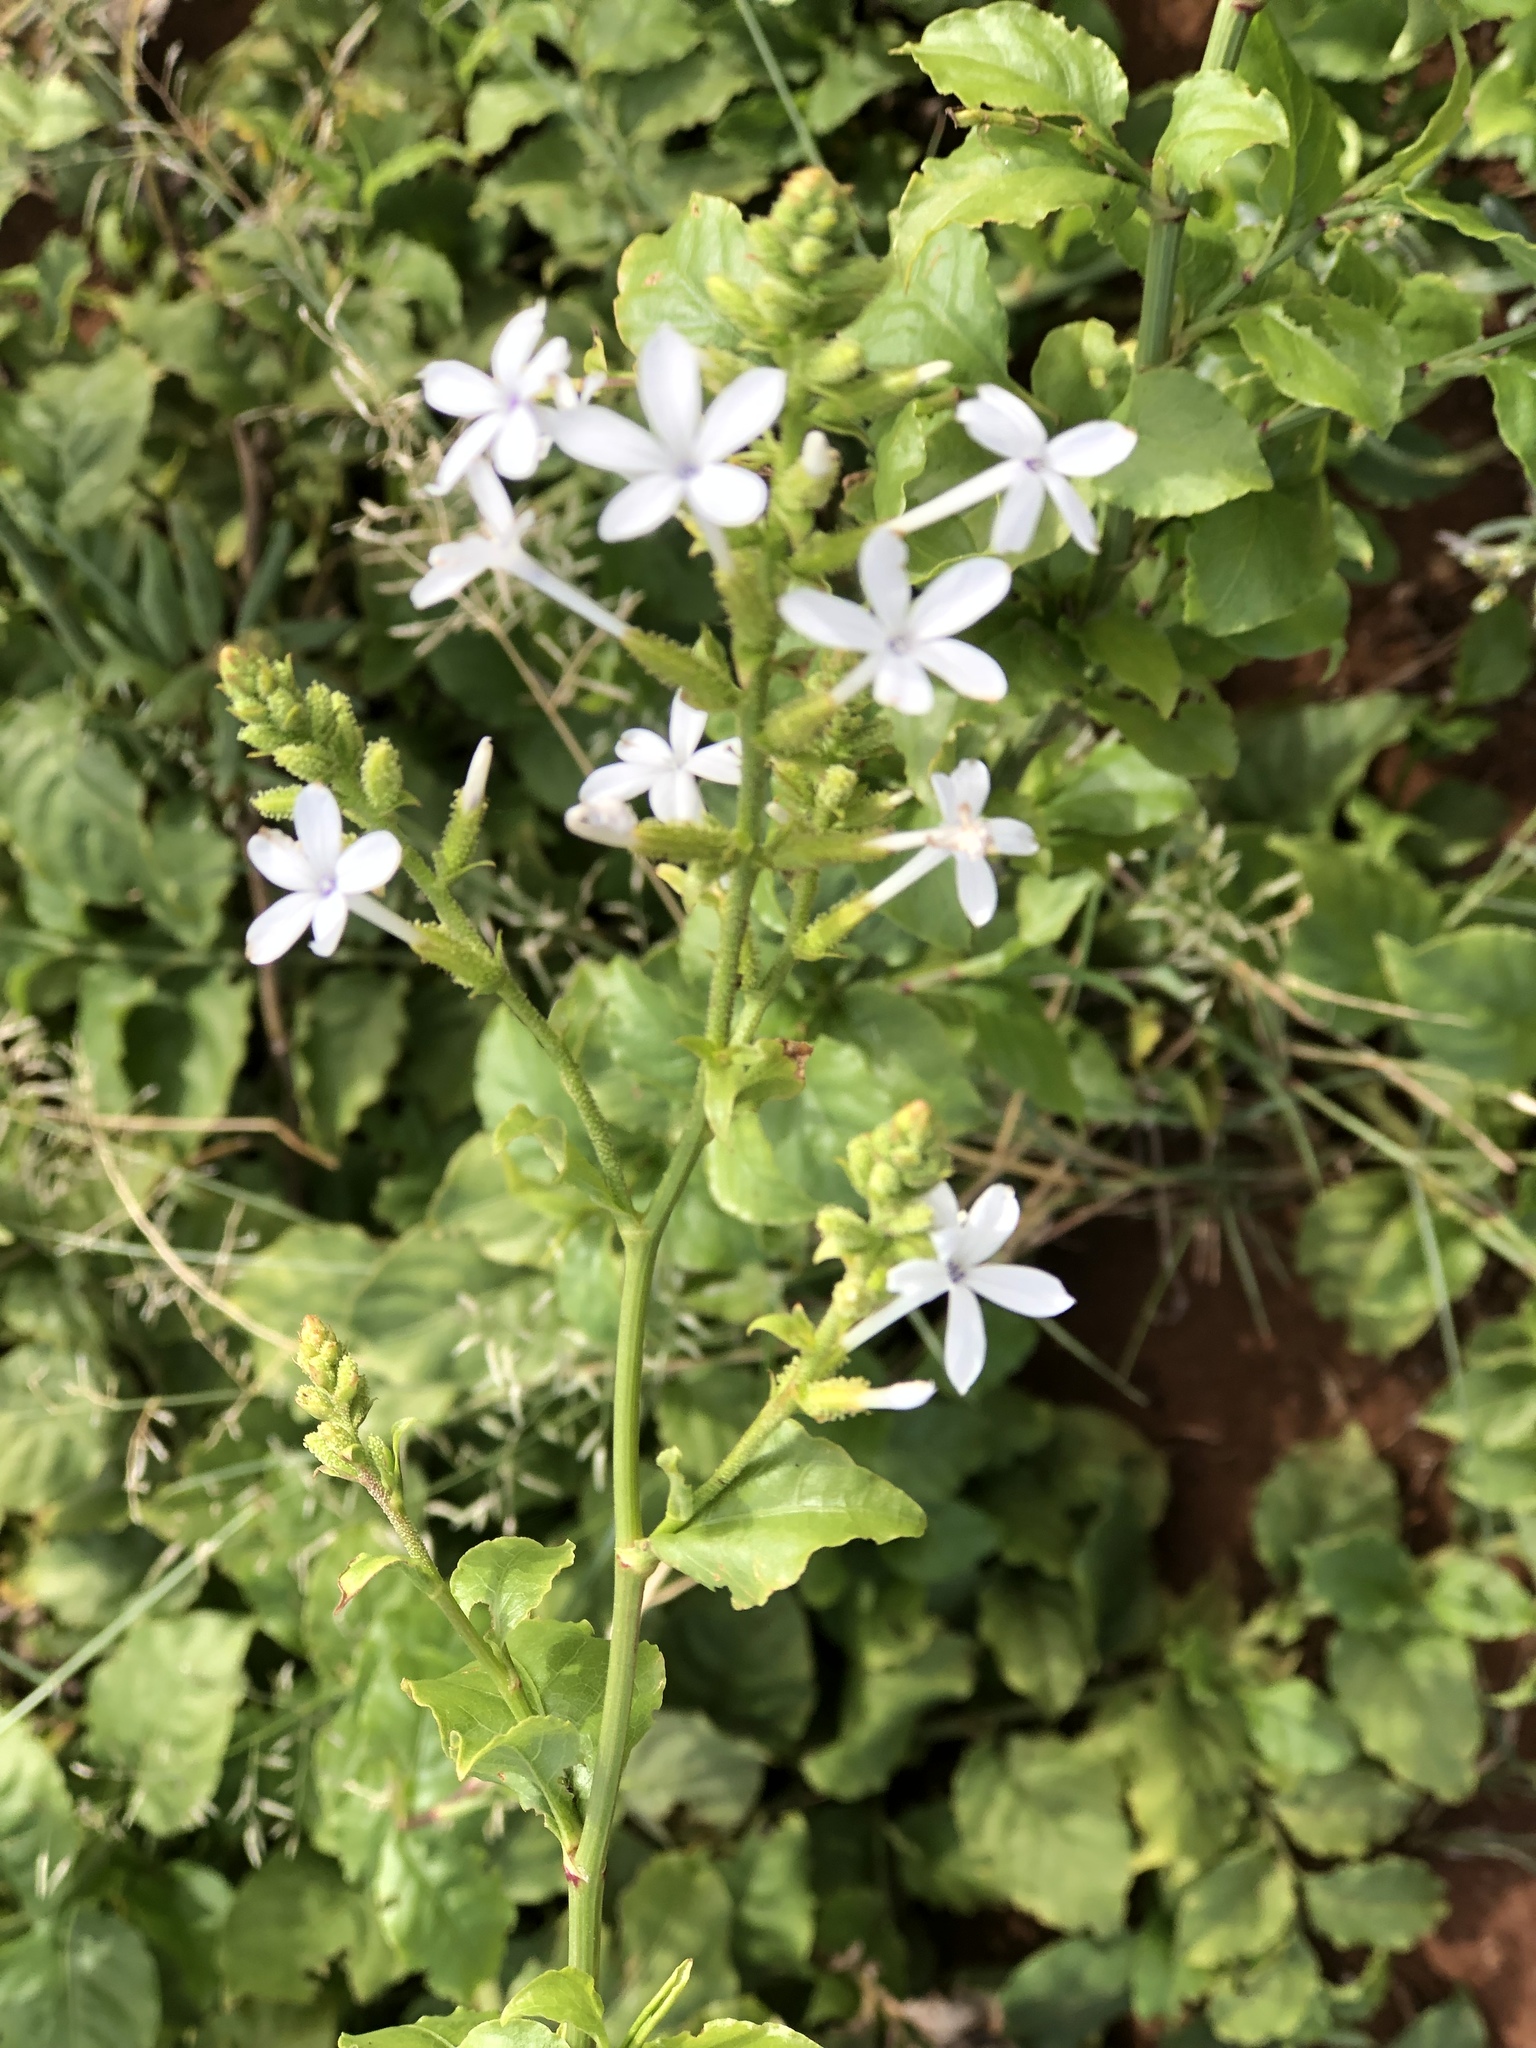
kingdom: Plantae
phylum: Tracheophyta
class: Magnoliopsida
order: Caryophyllales
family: Plumbaginaceae
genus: Plumbago
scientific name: Plumbago zeylanica
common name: Doctorbush
